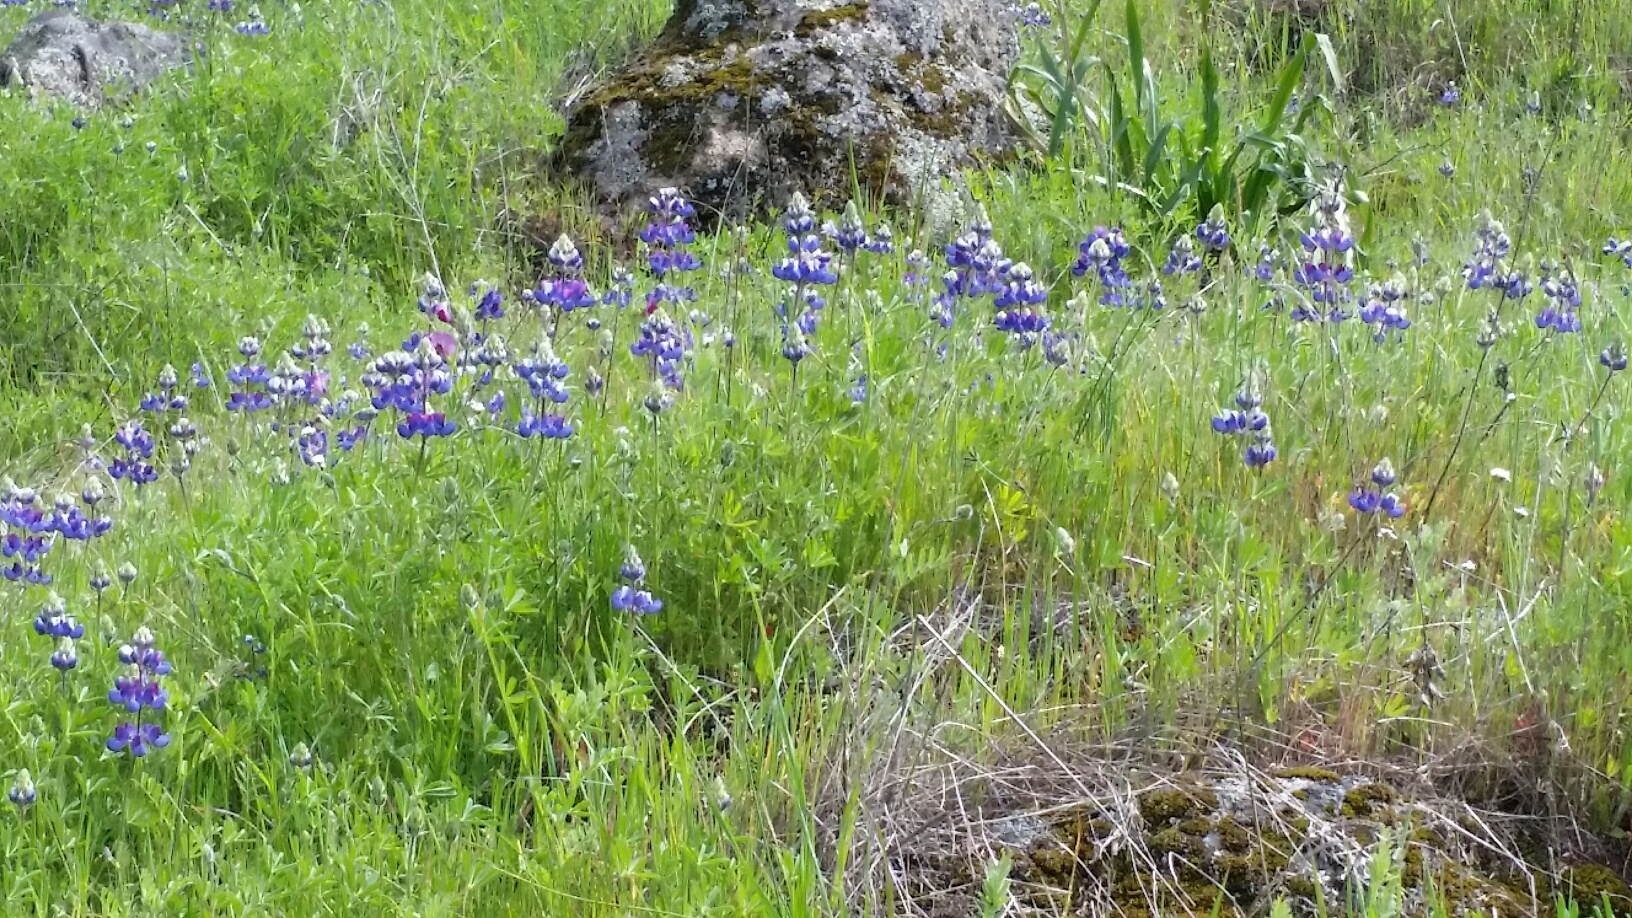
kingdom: Plantae
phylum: Tracheophyta
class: Magnoliopsida
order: Fabales
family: Fabaceae
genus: Lupinus
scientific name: Lupinus nanus
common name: Orean blue lupin
